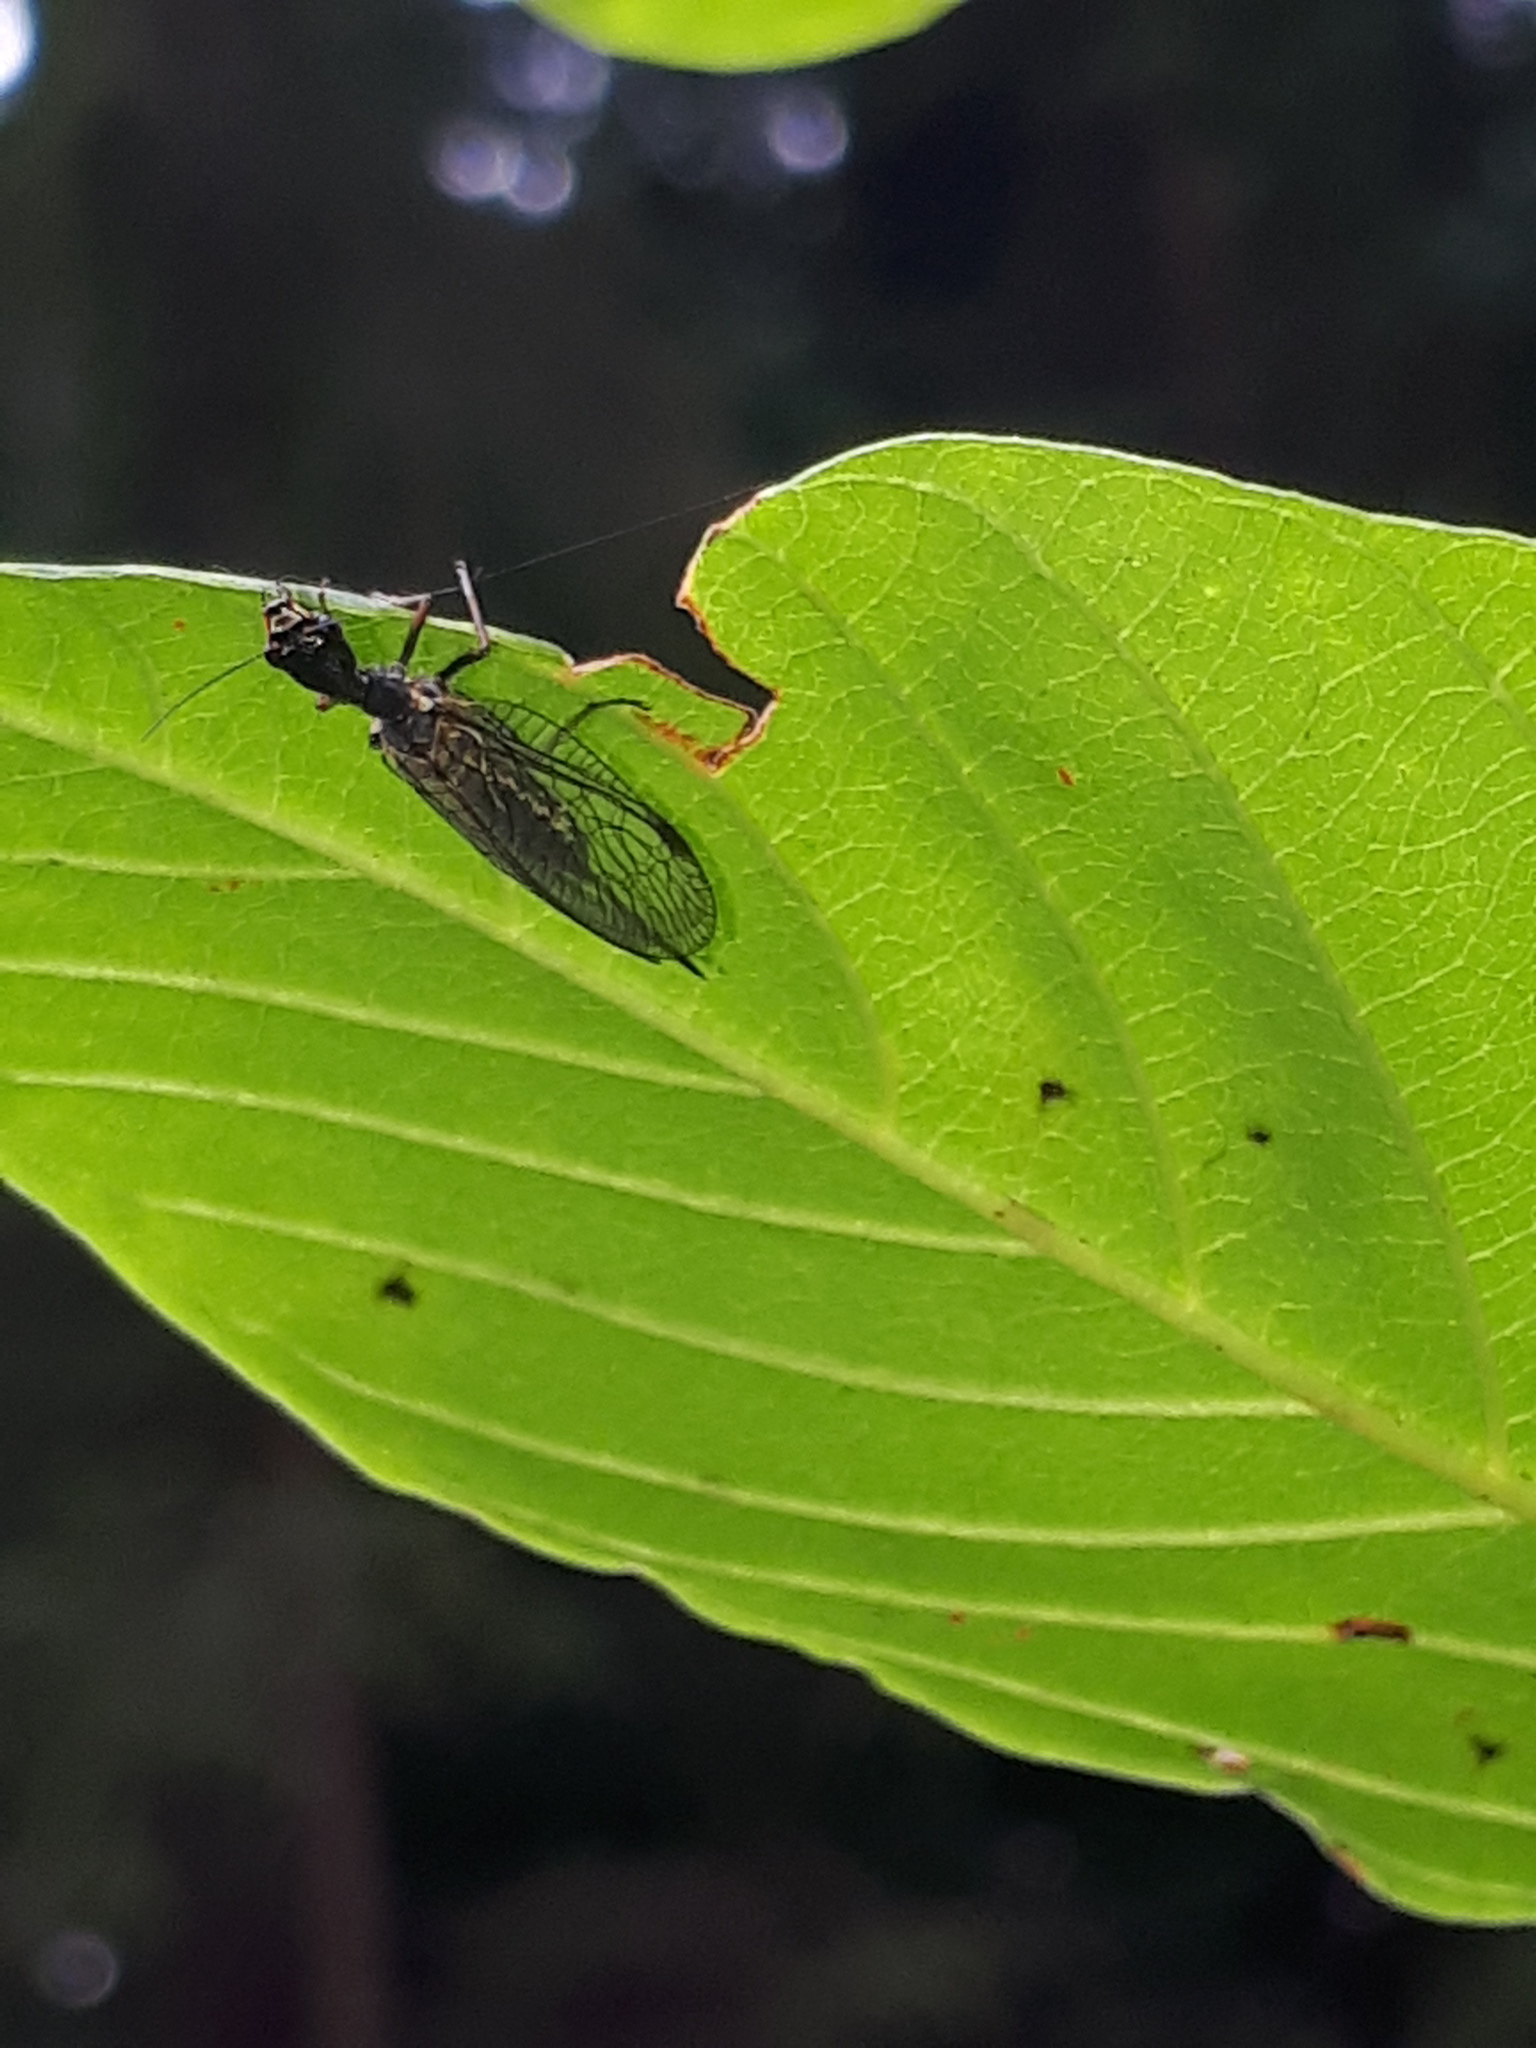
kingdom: Animalia
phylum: Arthropoda
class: Insecta
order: Raphidioptera
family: Raphidiidae
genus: Phaeostigma
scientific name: Phaeostigma notatum
